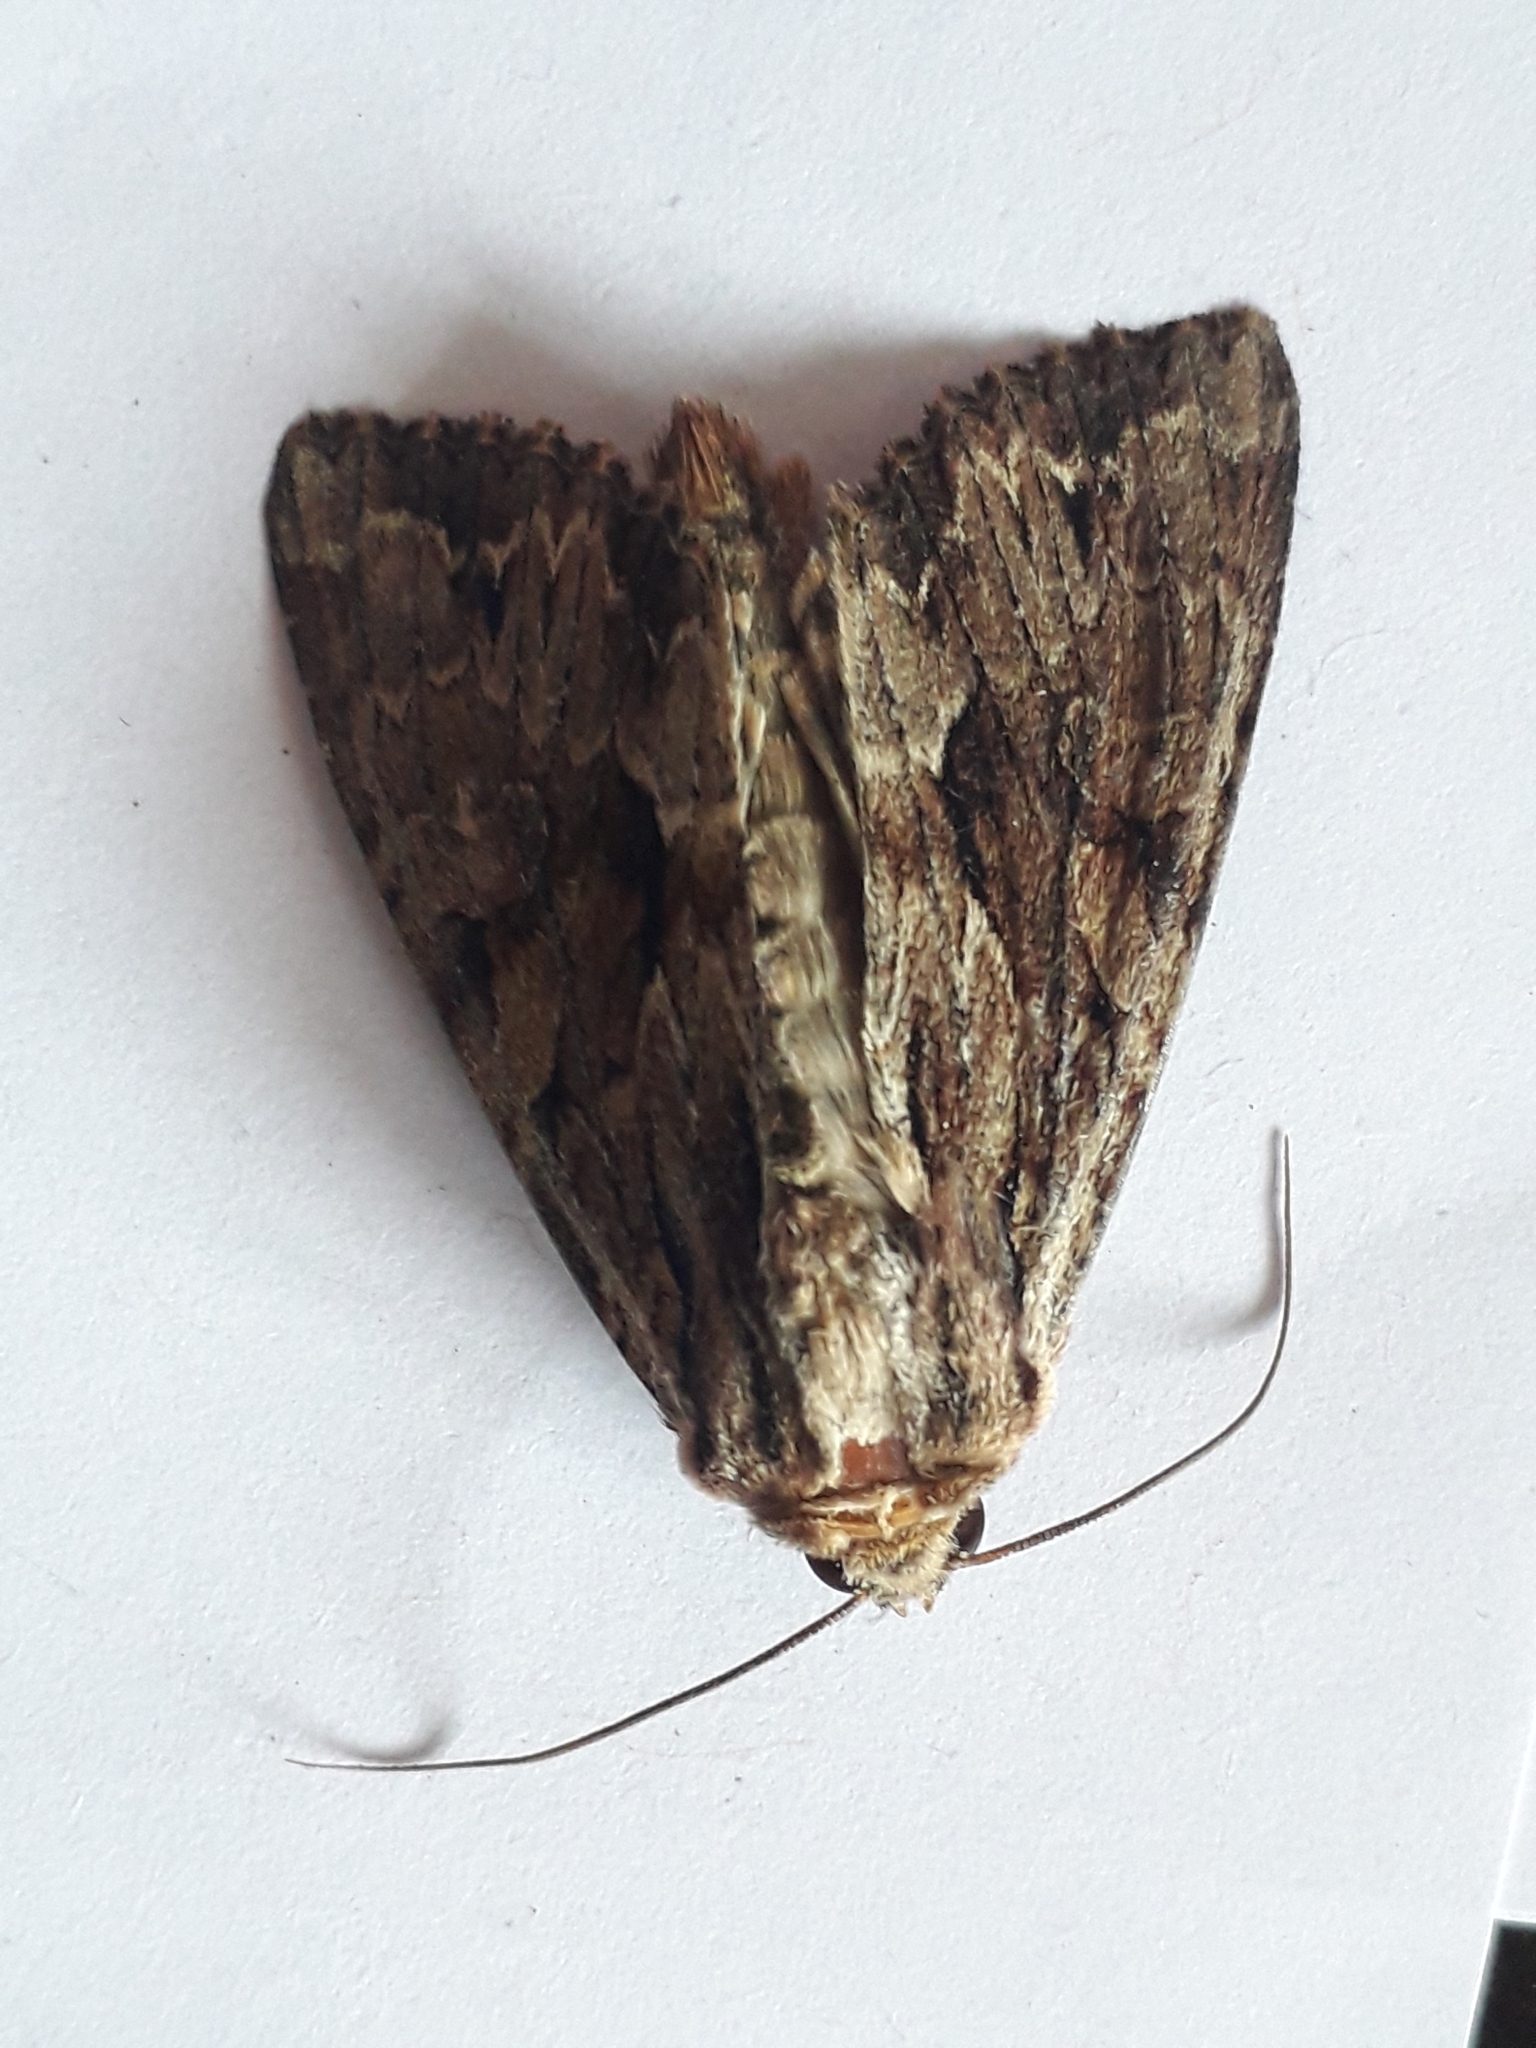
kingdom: Animalia
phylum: Arthropoda
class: Insecta
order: Lepidoptera
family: Noctuidae
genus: Apamea
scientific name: Apamea monoglypha
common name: Dark arches
